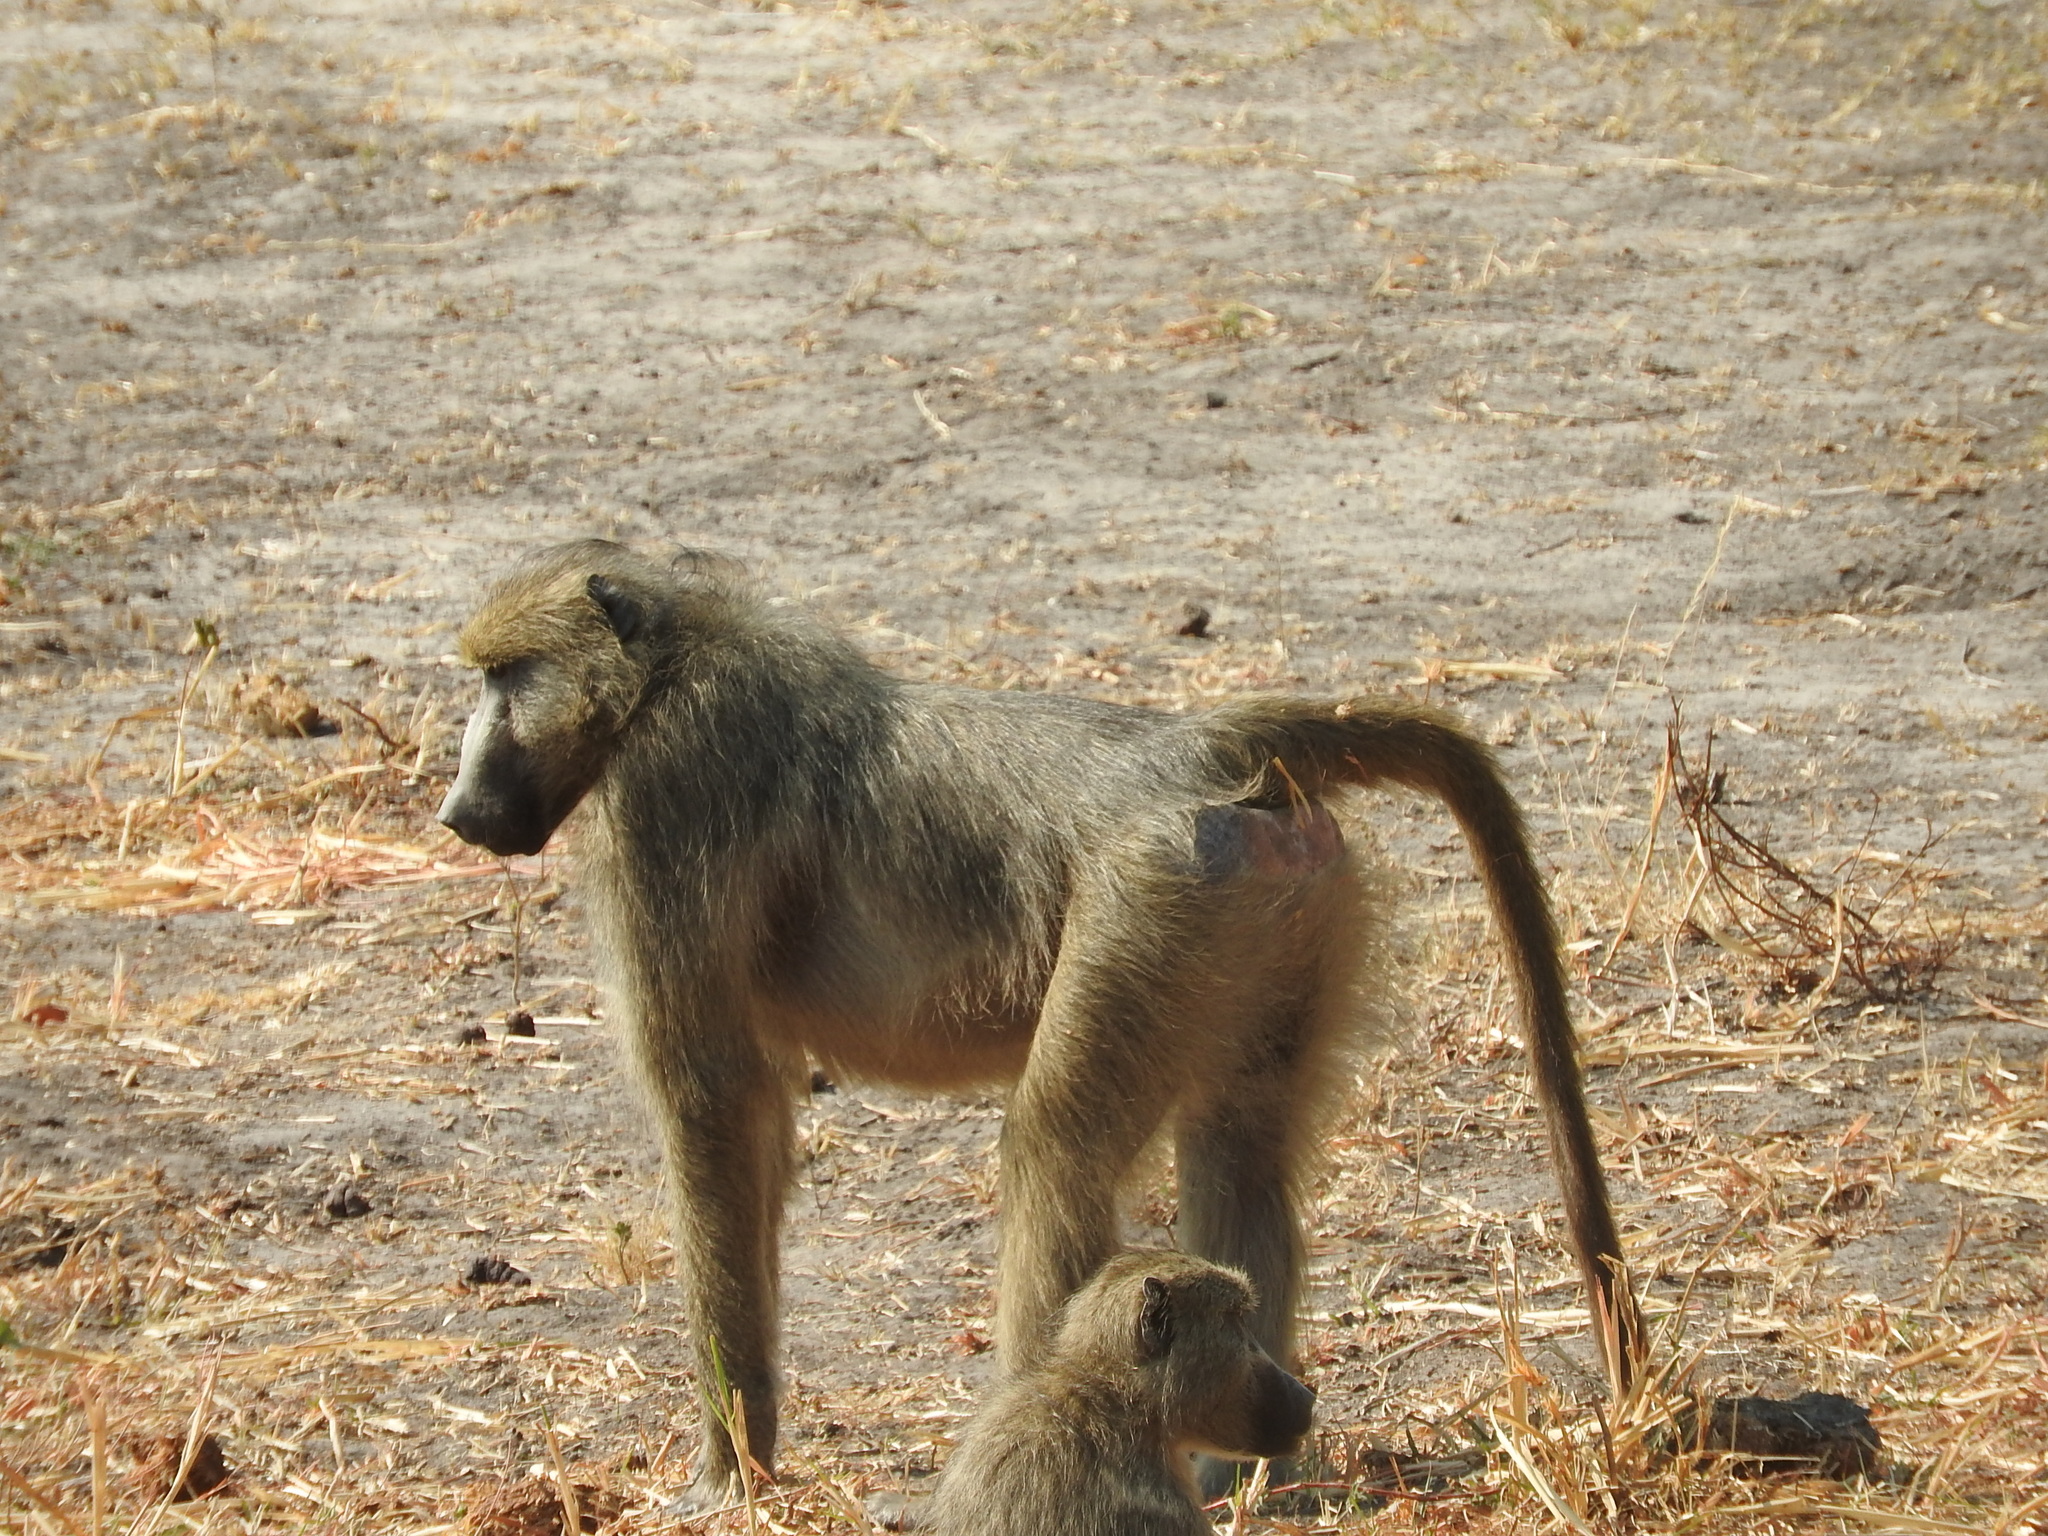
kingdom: Animalia
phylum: Chordata
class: Mammalia
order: Primates
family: Cercopithecidae
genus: Papio
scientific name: Papio ursinus
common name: Chacma baboon
